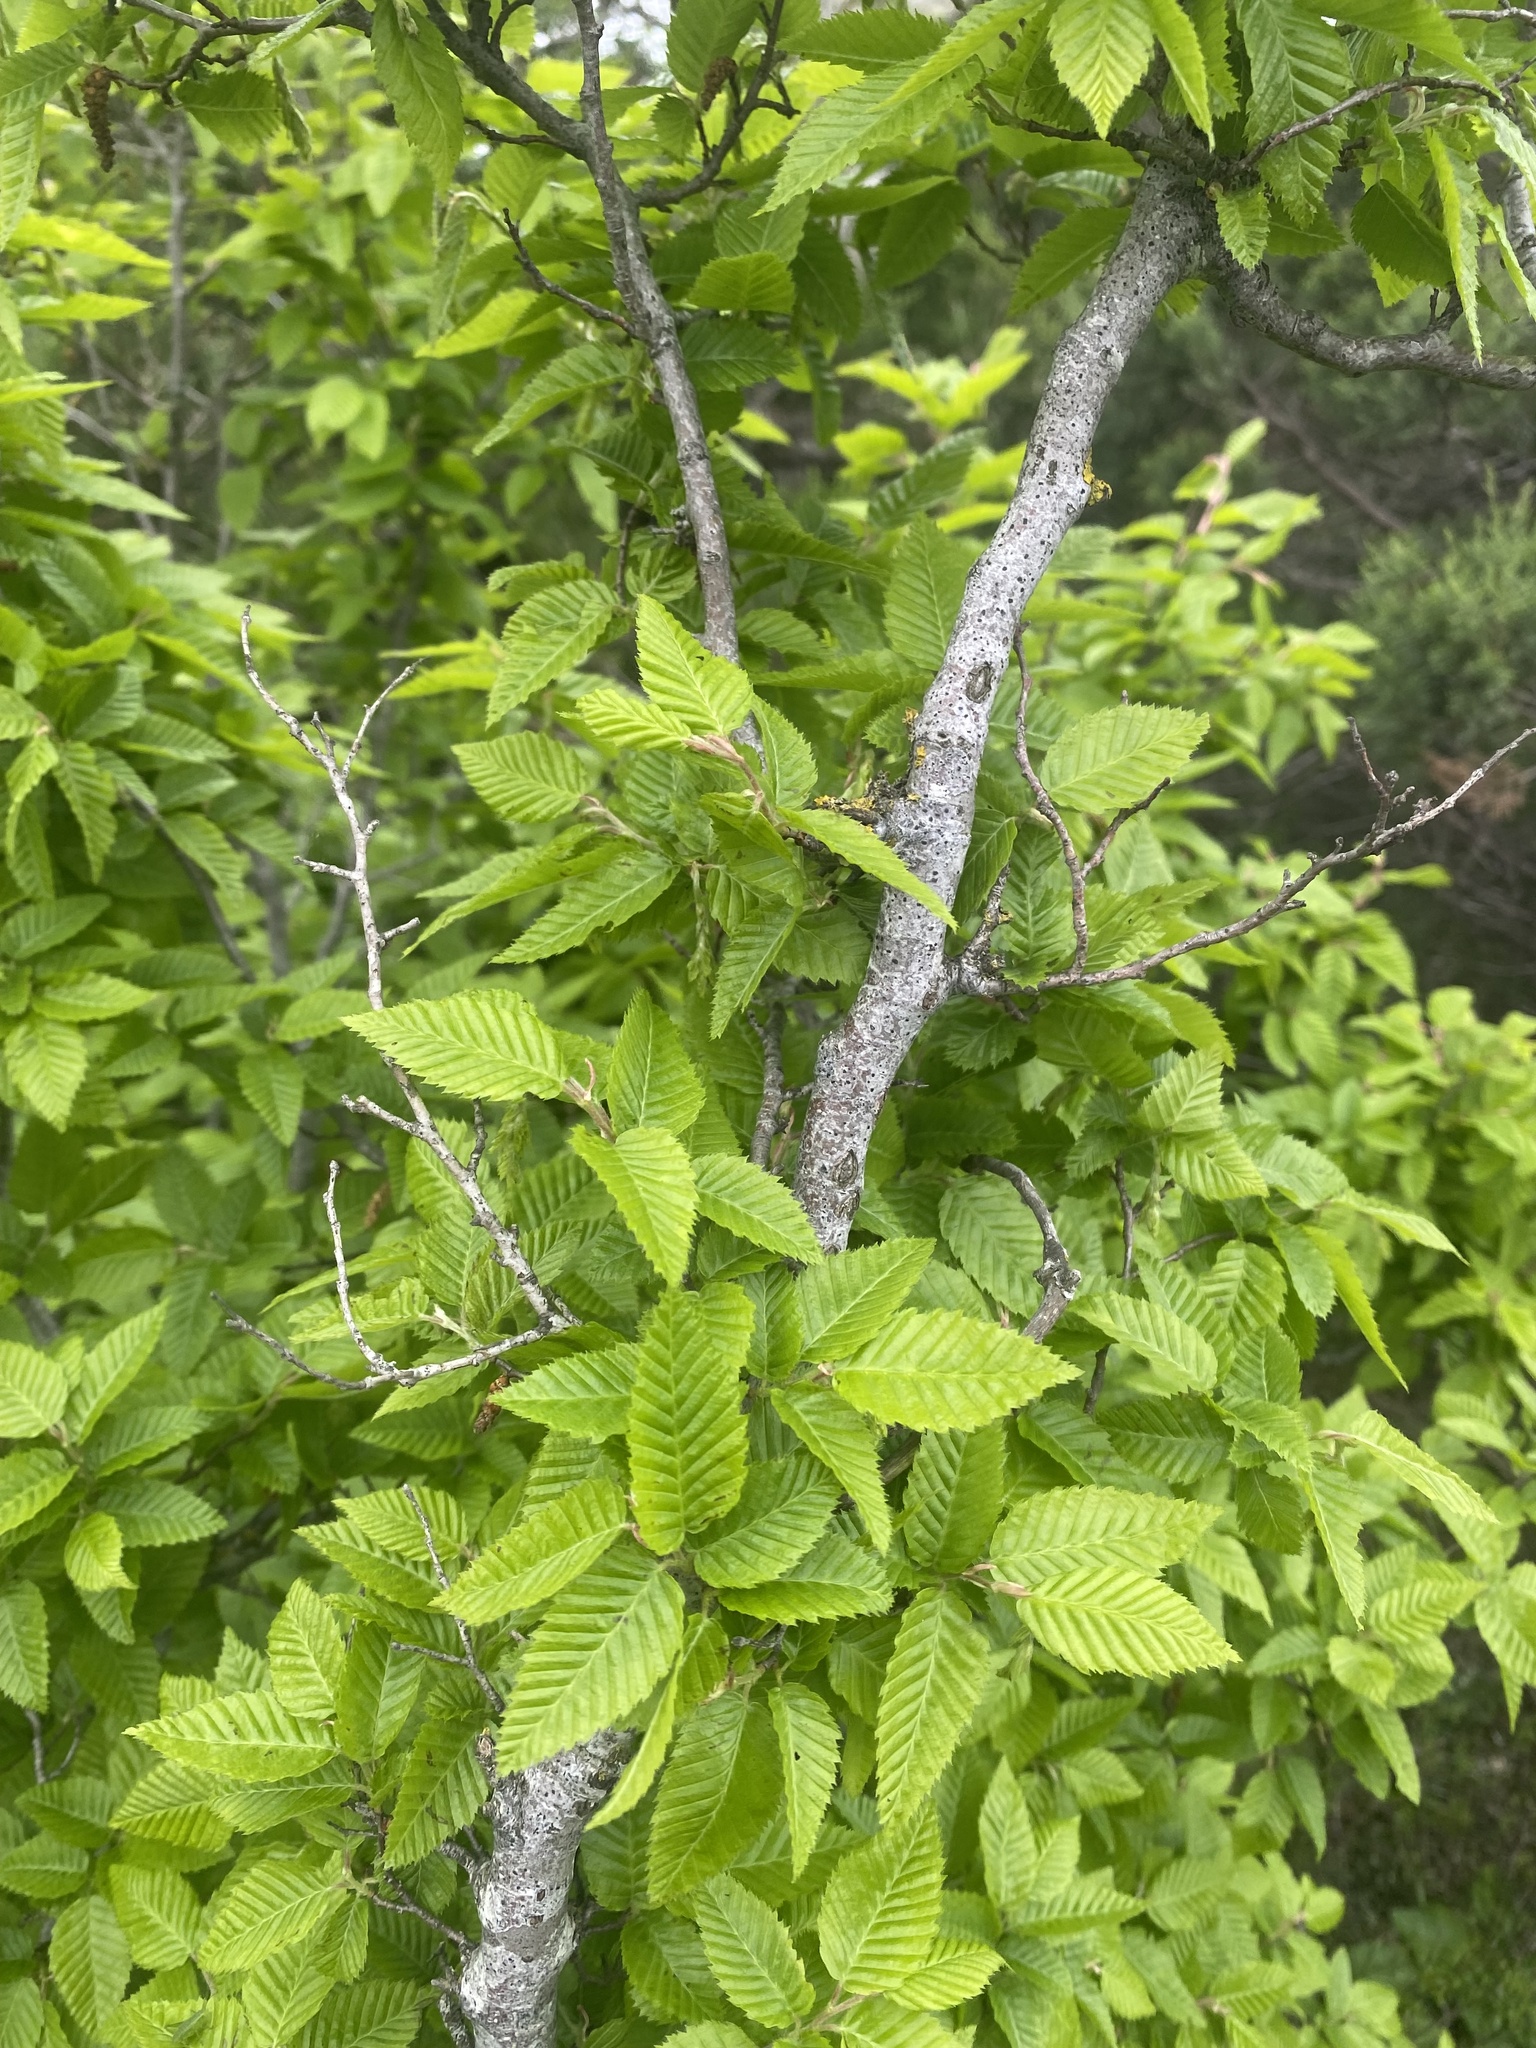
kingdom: Plantae
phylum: Tracheophyta
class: Magnoliopsida
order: Fagales
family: Betulaceae
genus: Carpinus
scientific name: Carpinus orientalis
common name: Eastern hornbeam
